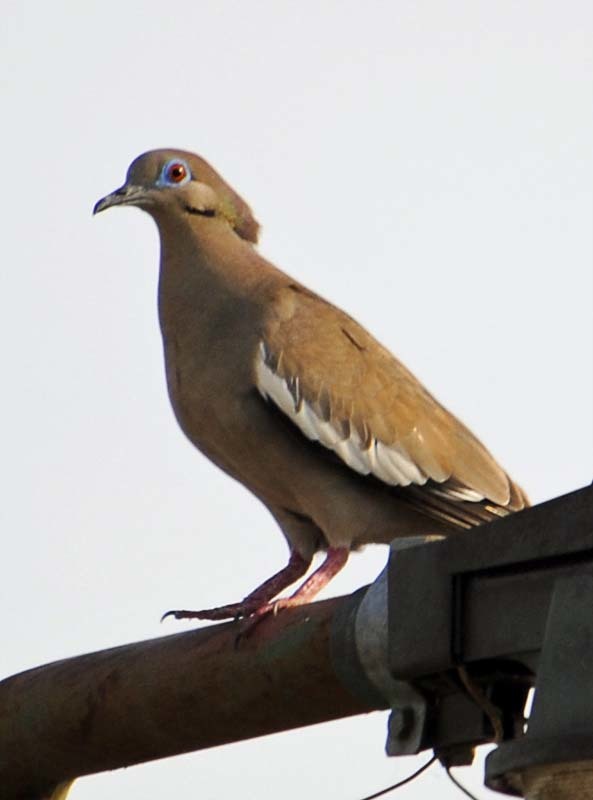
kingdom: Animalia
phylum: Chordata
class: Aves
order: Columbiformes
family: Columbidae
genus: Zenaida
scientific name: Zenaida asiatica
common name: White-winged dove
